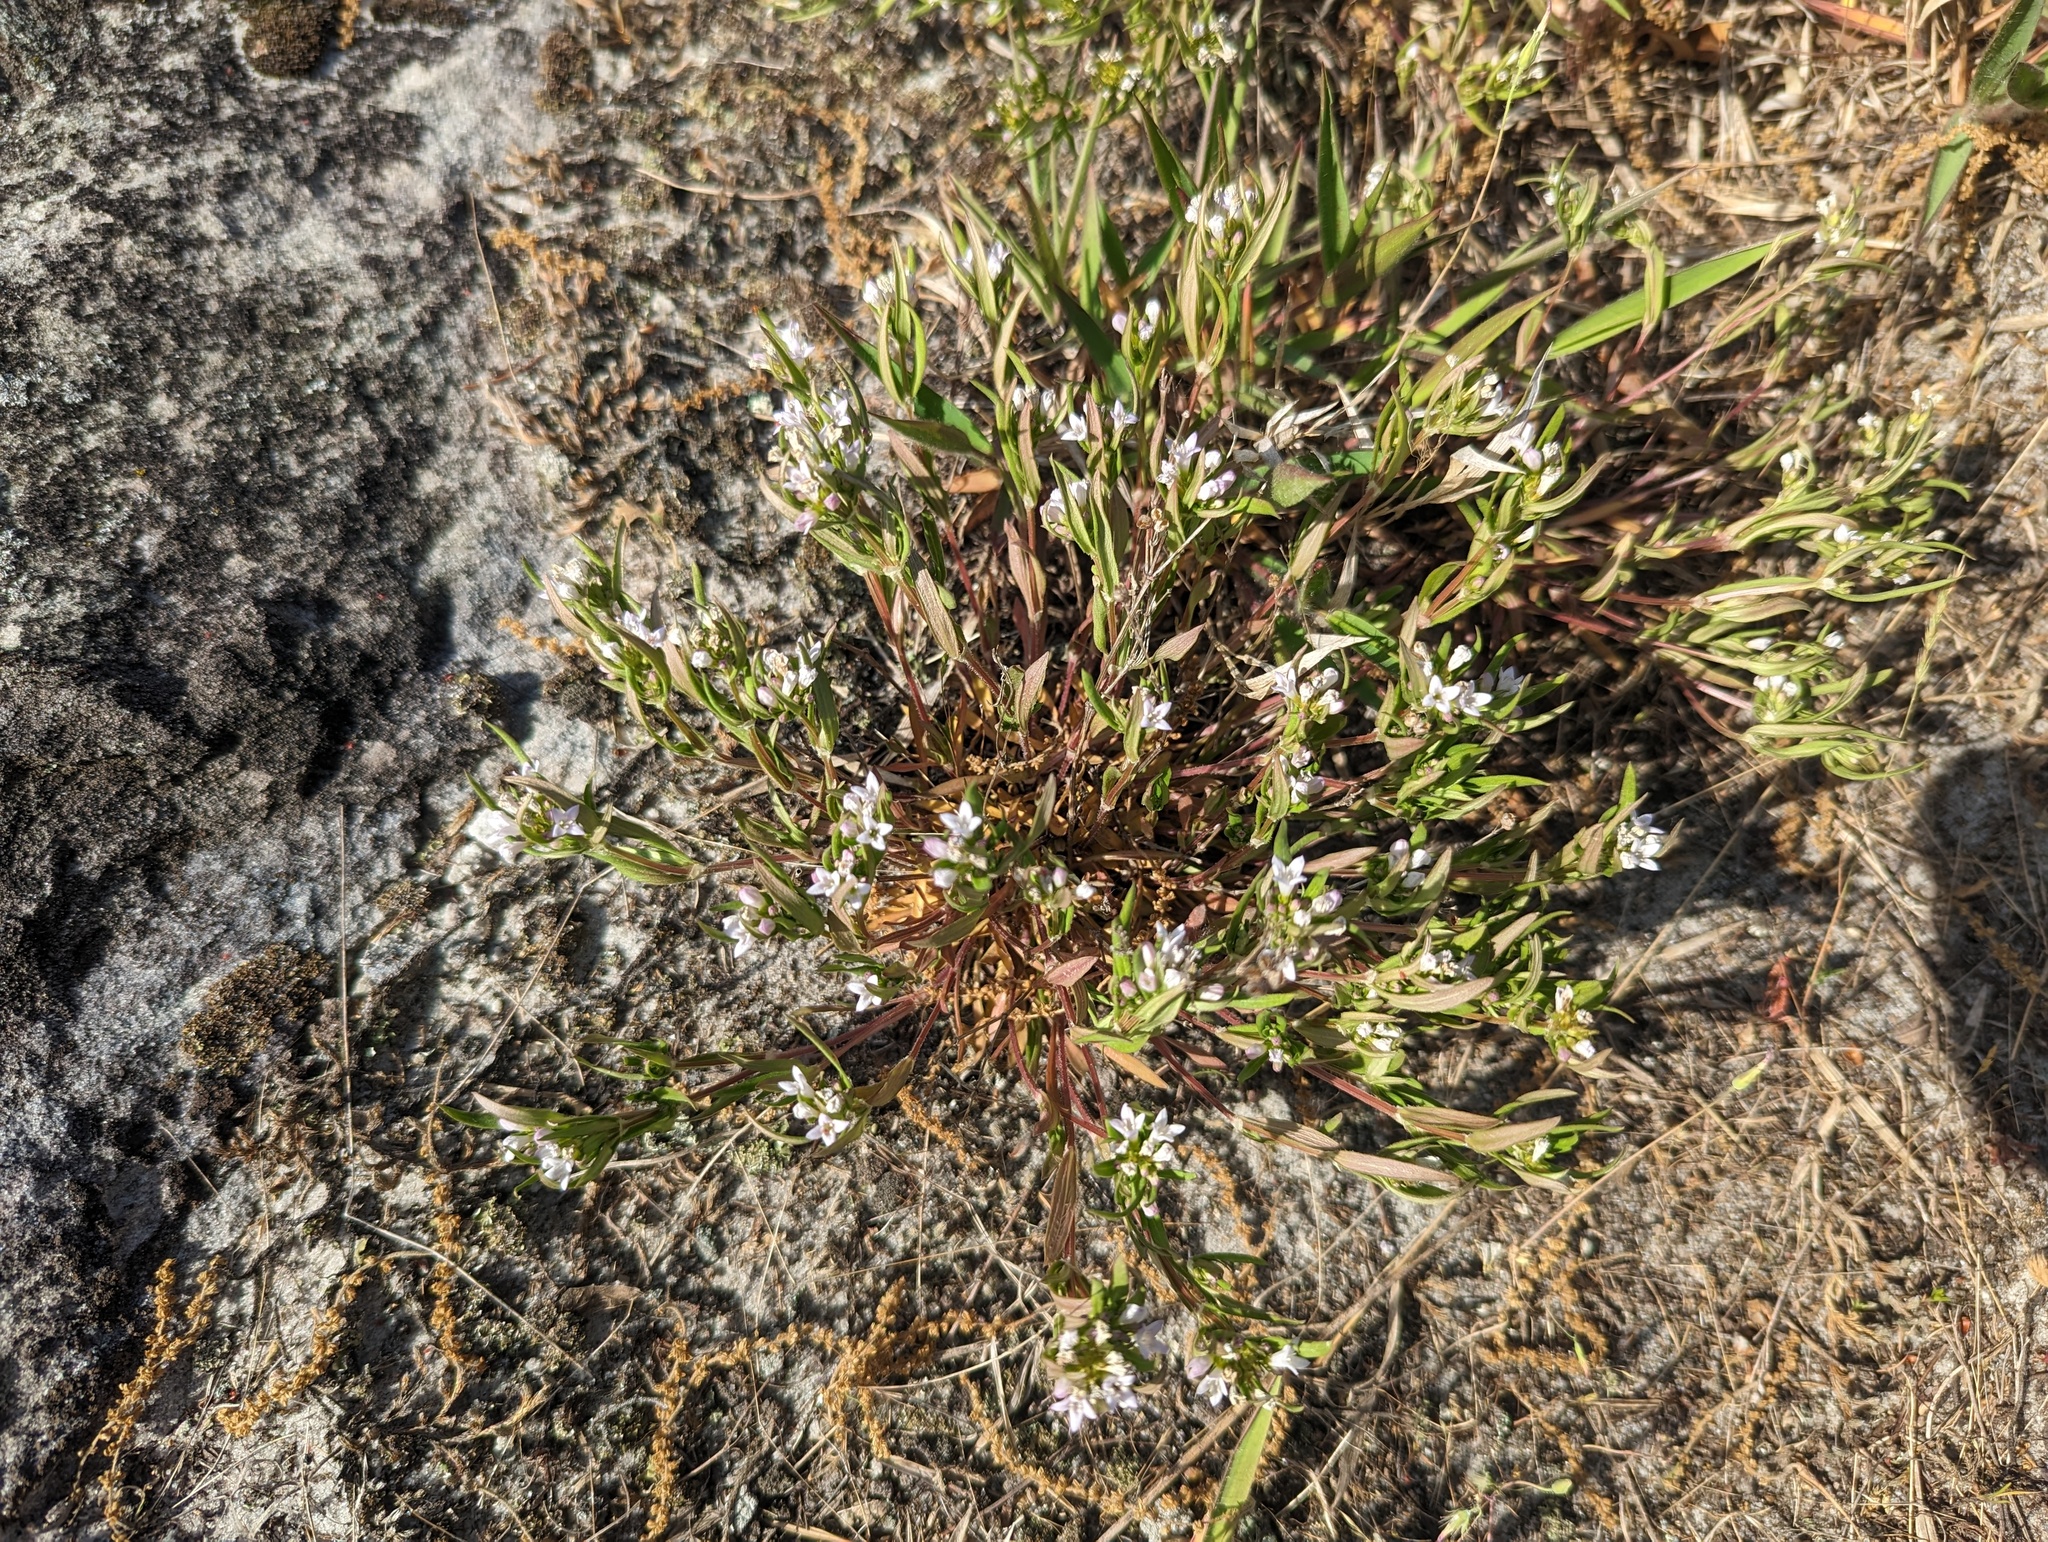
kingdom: Plantae
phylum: Tracheophyta
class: Magnoliopsida
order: Gentianales
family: Rubiaceae
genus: Houstonia
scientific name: Houstonia canadensis
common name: Fringed houstonia
